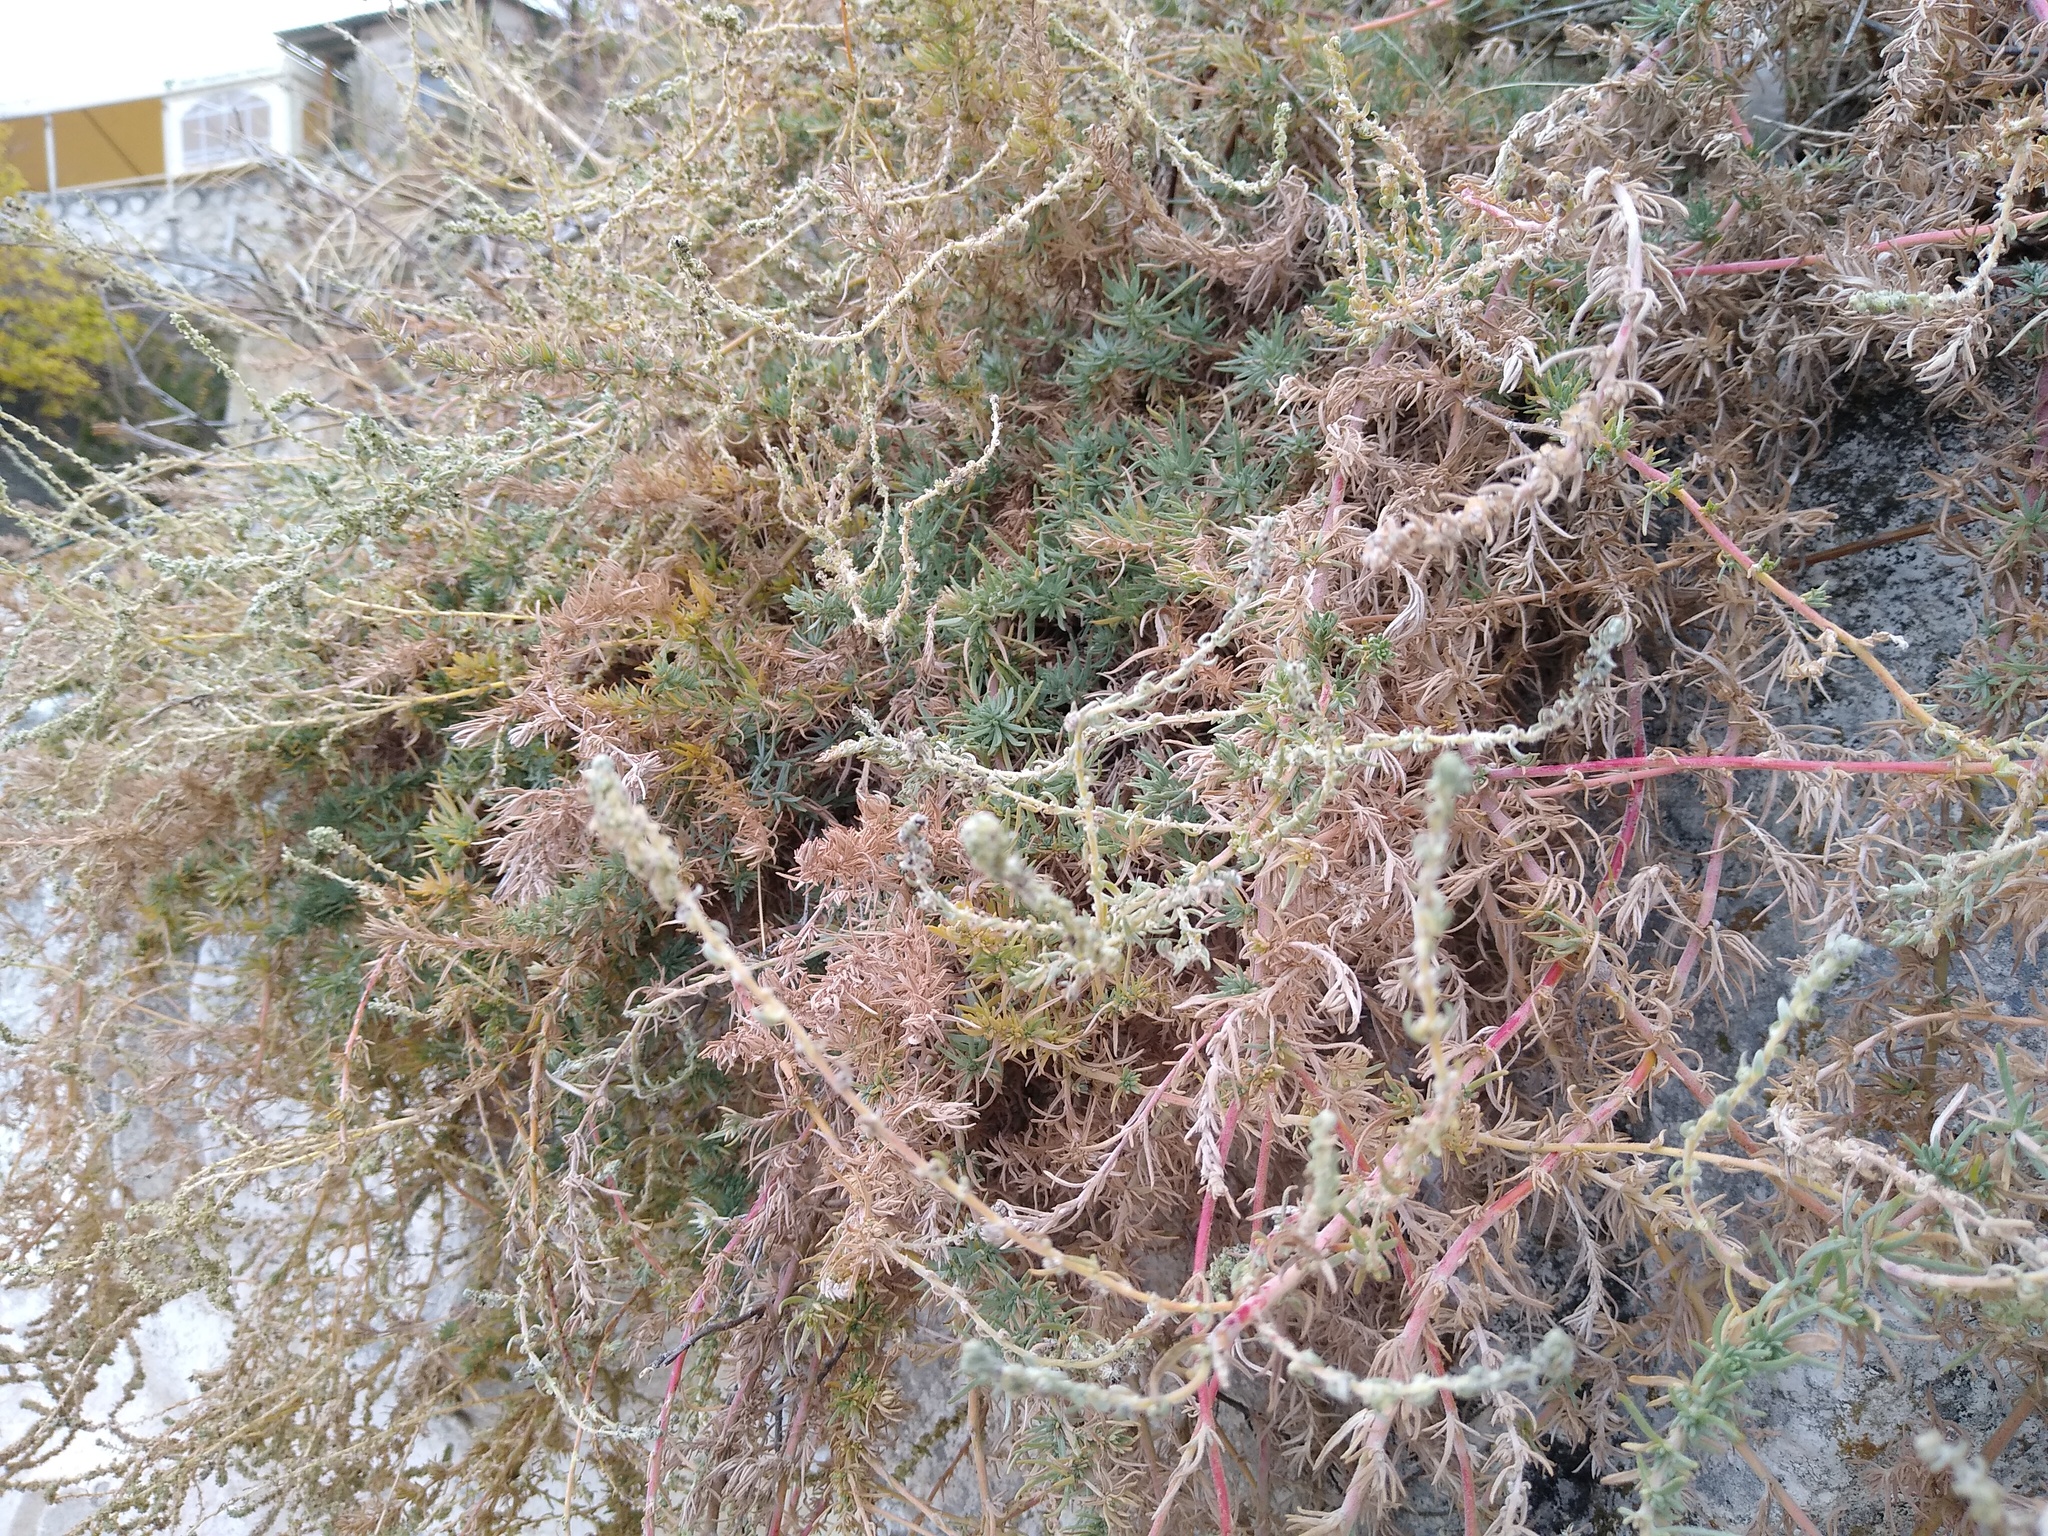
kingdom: Plantae
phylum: Tracheophyta
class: Magnoliopsida
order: Caryophyllales
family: Amaranthaceae
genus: Bassia
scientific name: Bassia prostrata
